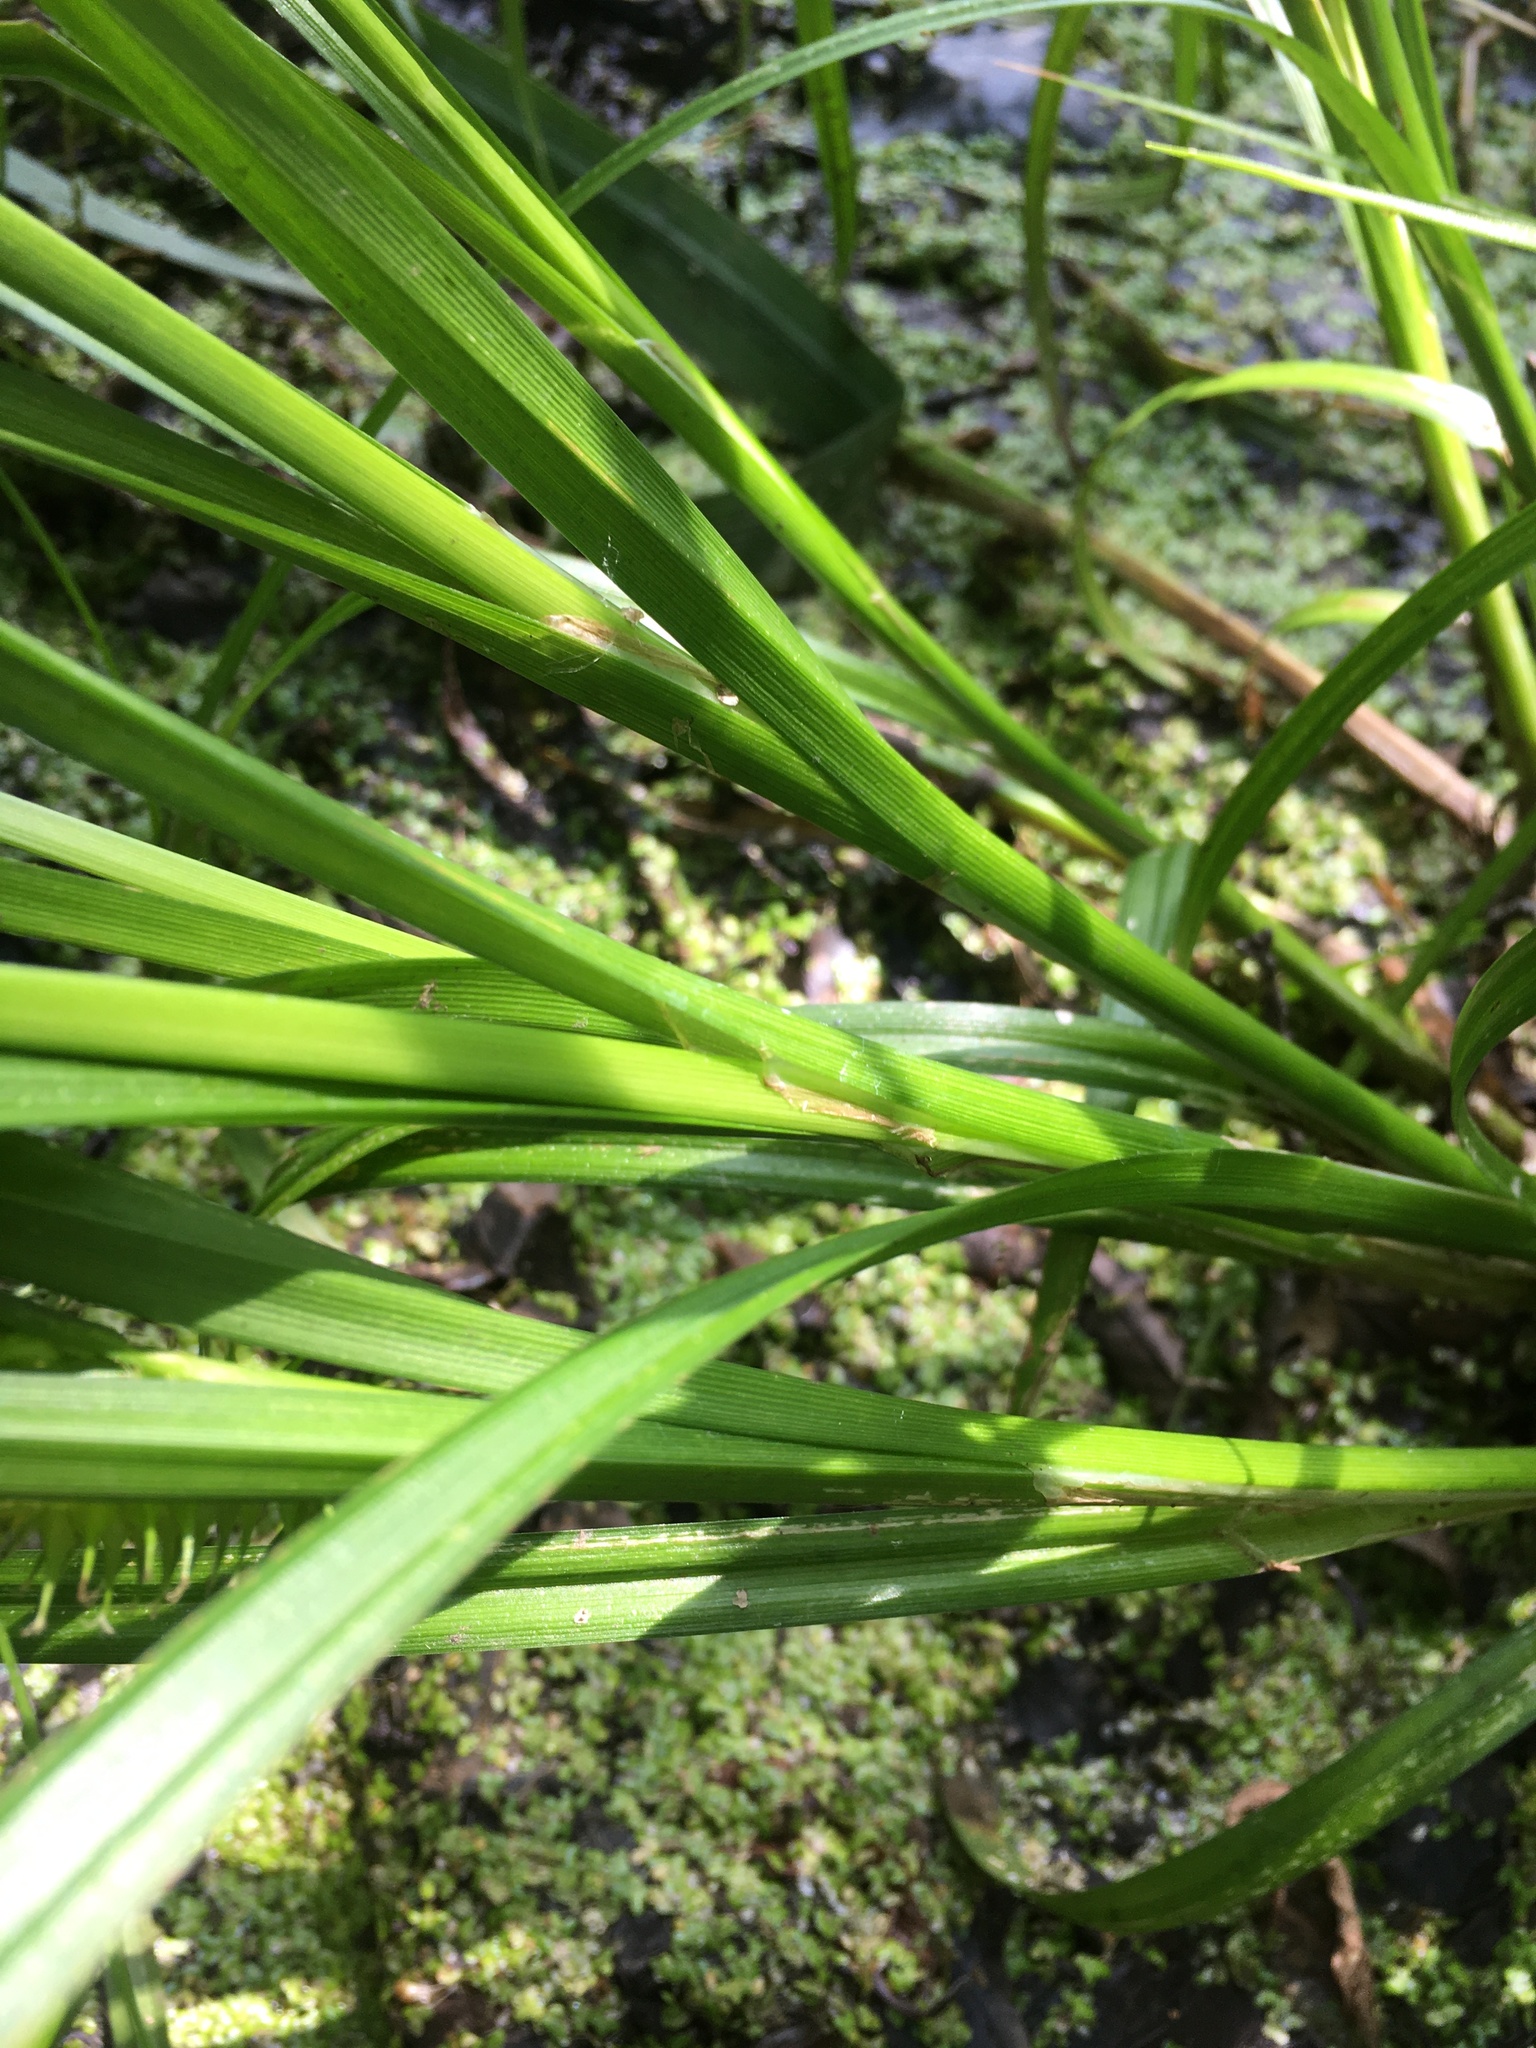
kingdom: Plantae
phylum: Tracheophyta
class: Liliopsida
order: Poales
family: Cyperaceae
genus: Carex
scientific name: Carex retrorsa
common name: Knot-sheath sedge
